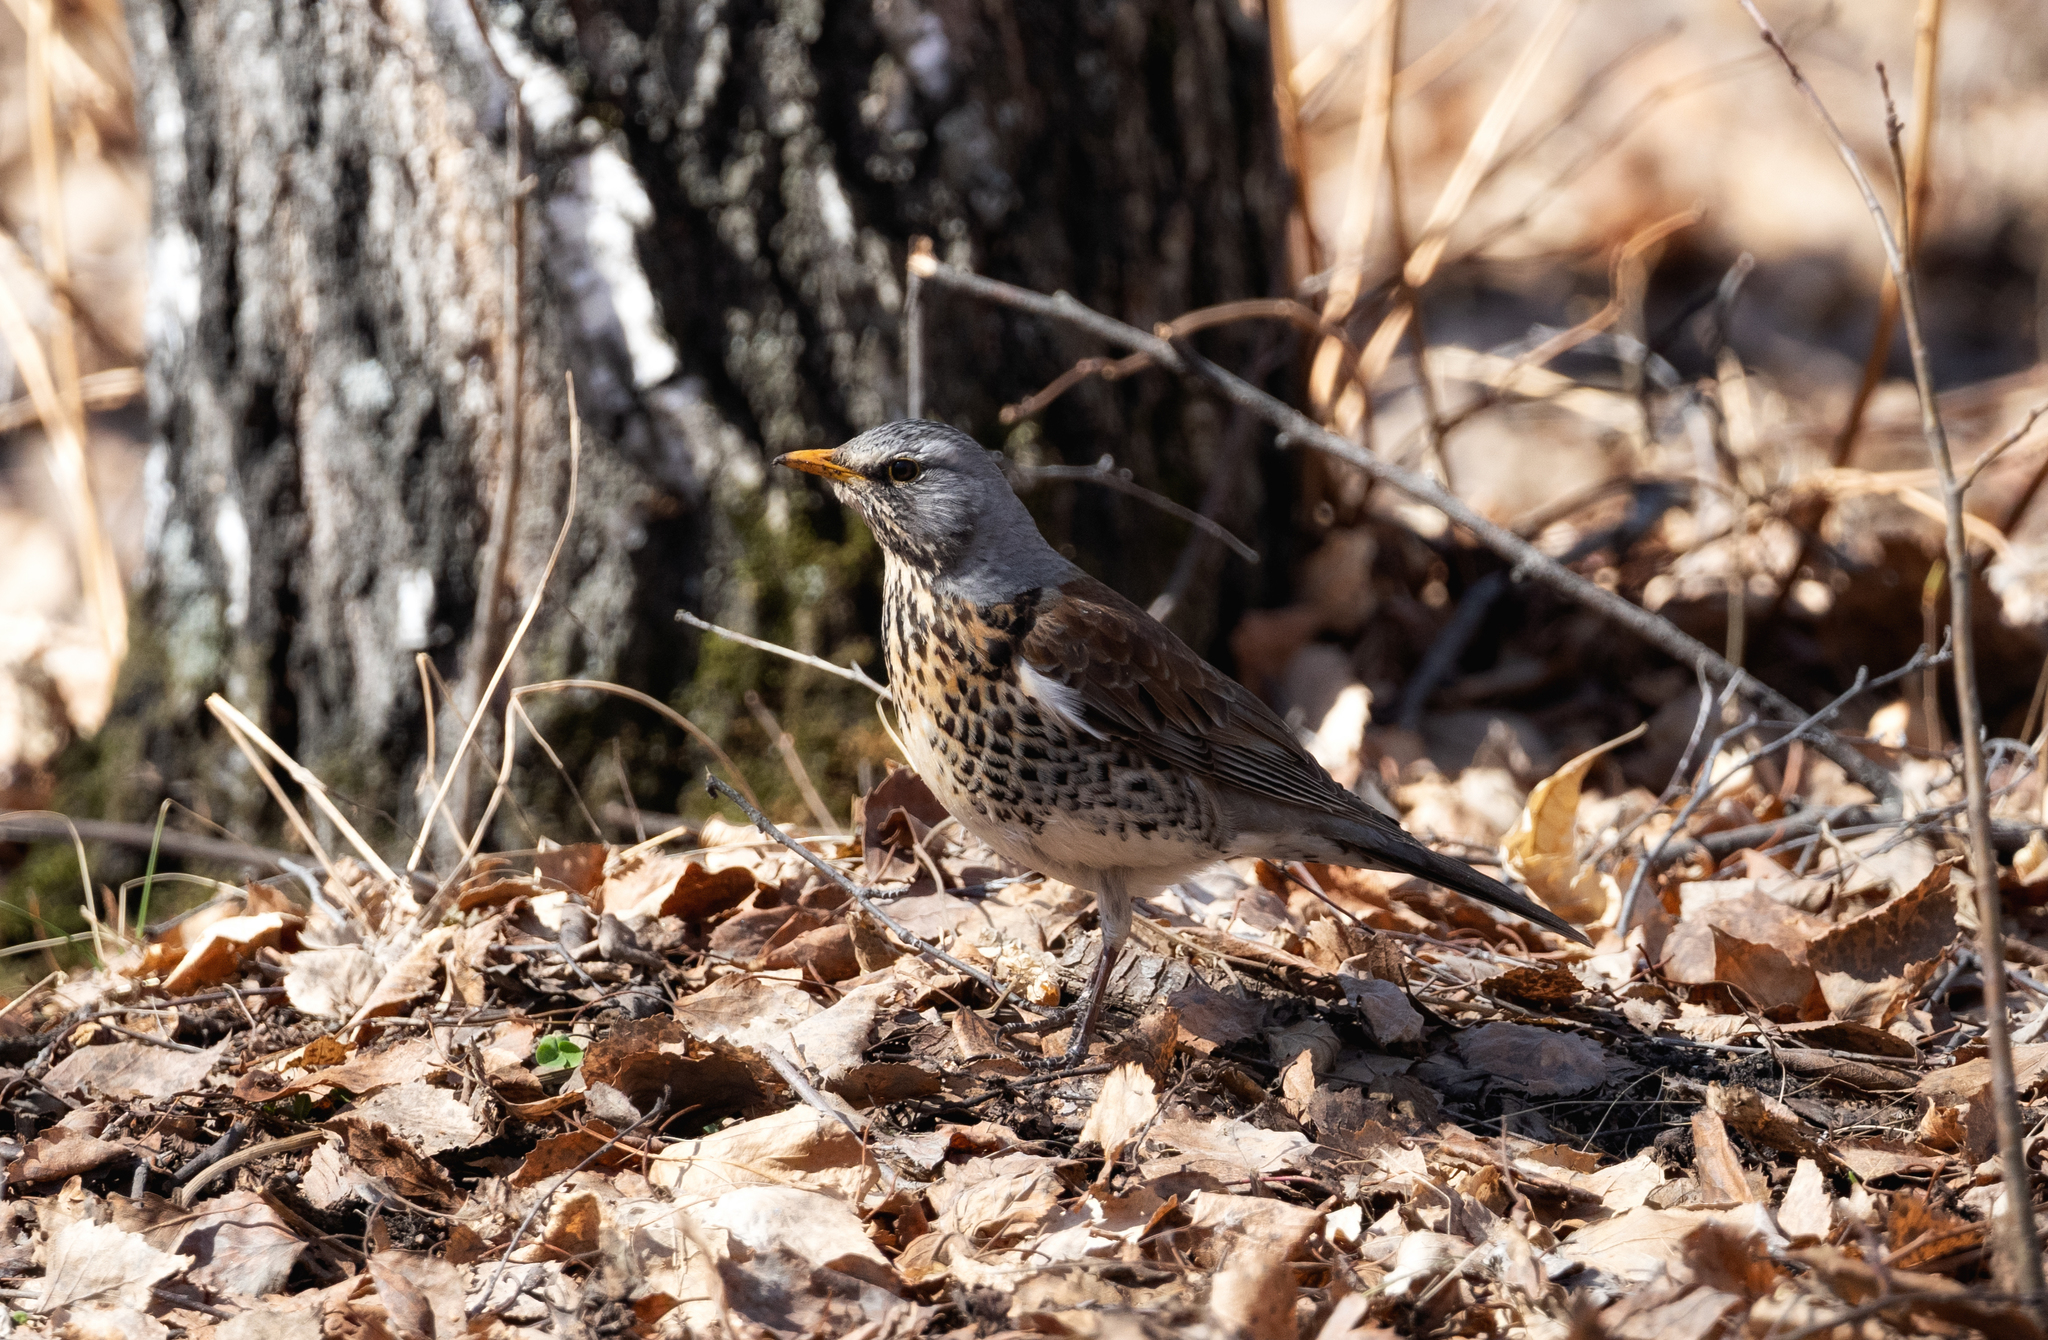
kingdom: Animalia
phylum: Chordata
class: Aves
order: Passeriformes
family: Turdidae
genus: Turdus
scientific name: Turdus pilaris
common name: Fieldfare
